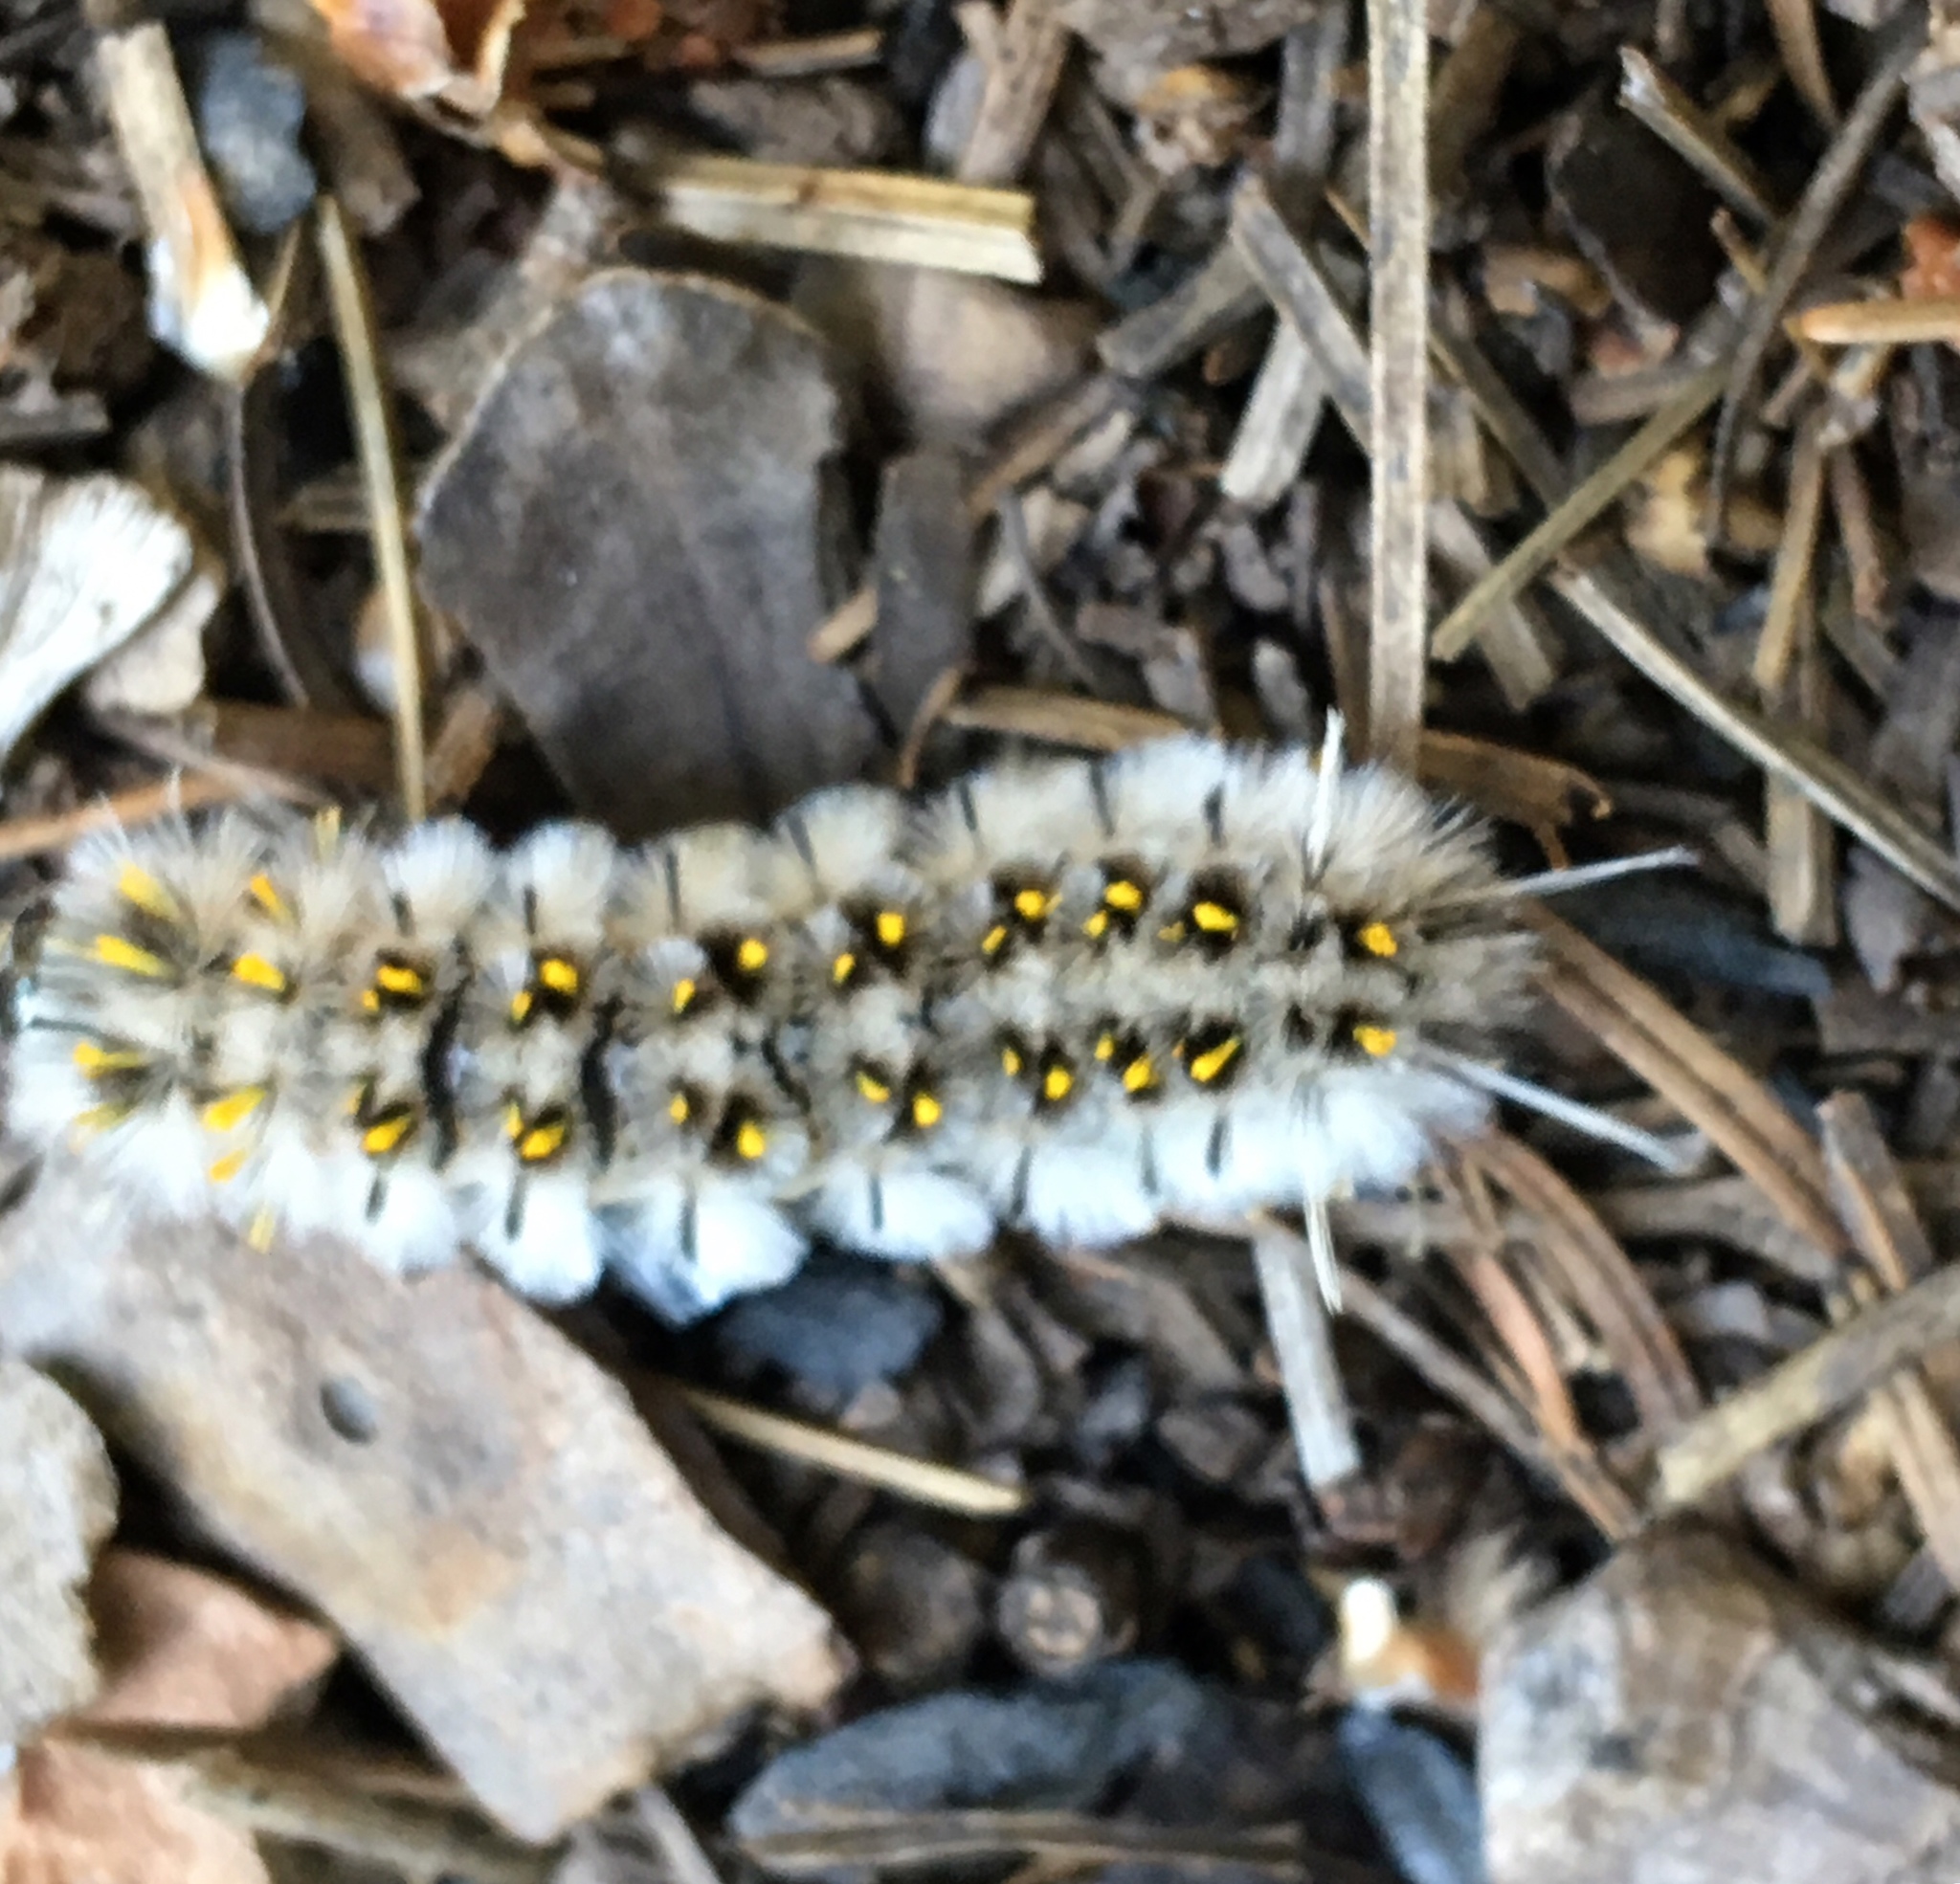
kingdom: Animalia
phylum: Arthropoda
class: Insecta
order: Lepidoptera
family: Erebidae
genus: Lophocampa
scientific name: Lophocampa roseata
